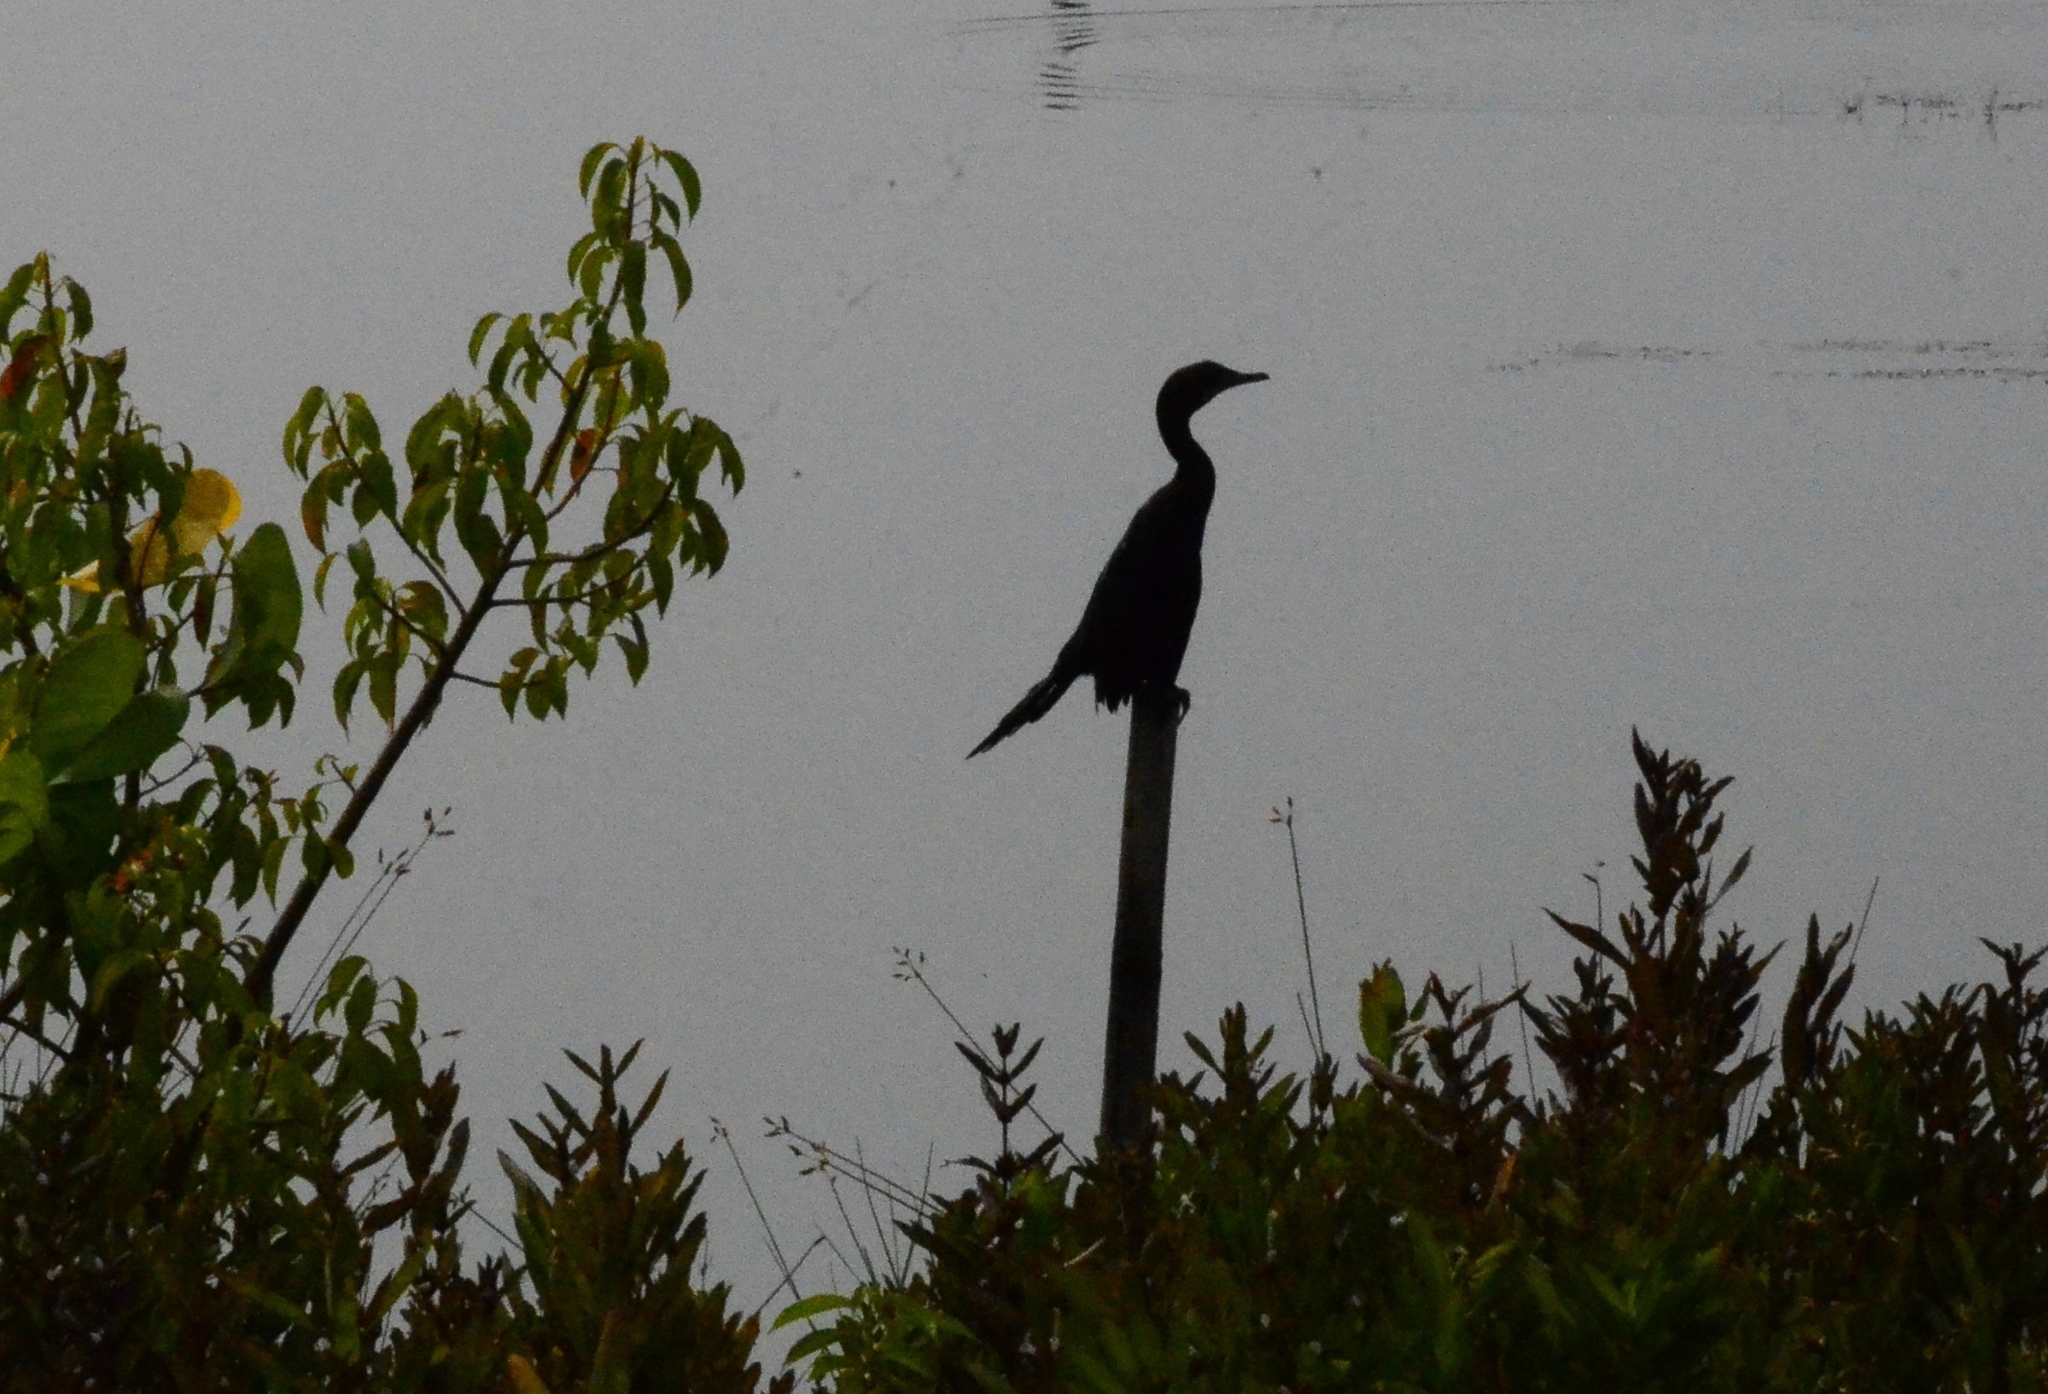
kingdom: Animalia
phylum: Chordata
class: Aves
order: Suliformes
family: Phalacrocoracidae
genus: Microcarbo
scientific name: Microcarbo niger
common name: Little cormorant
